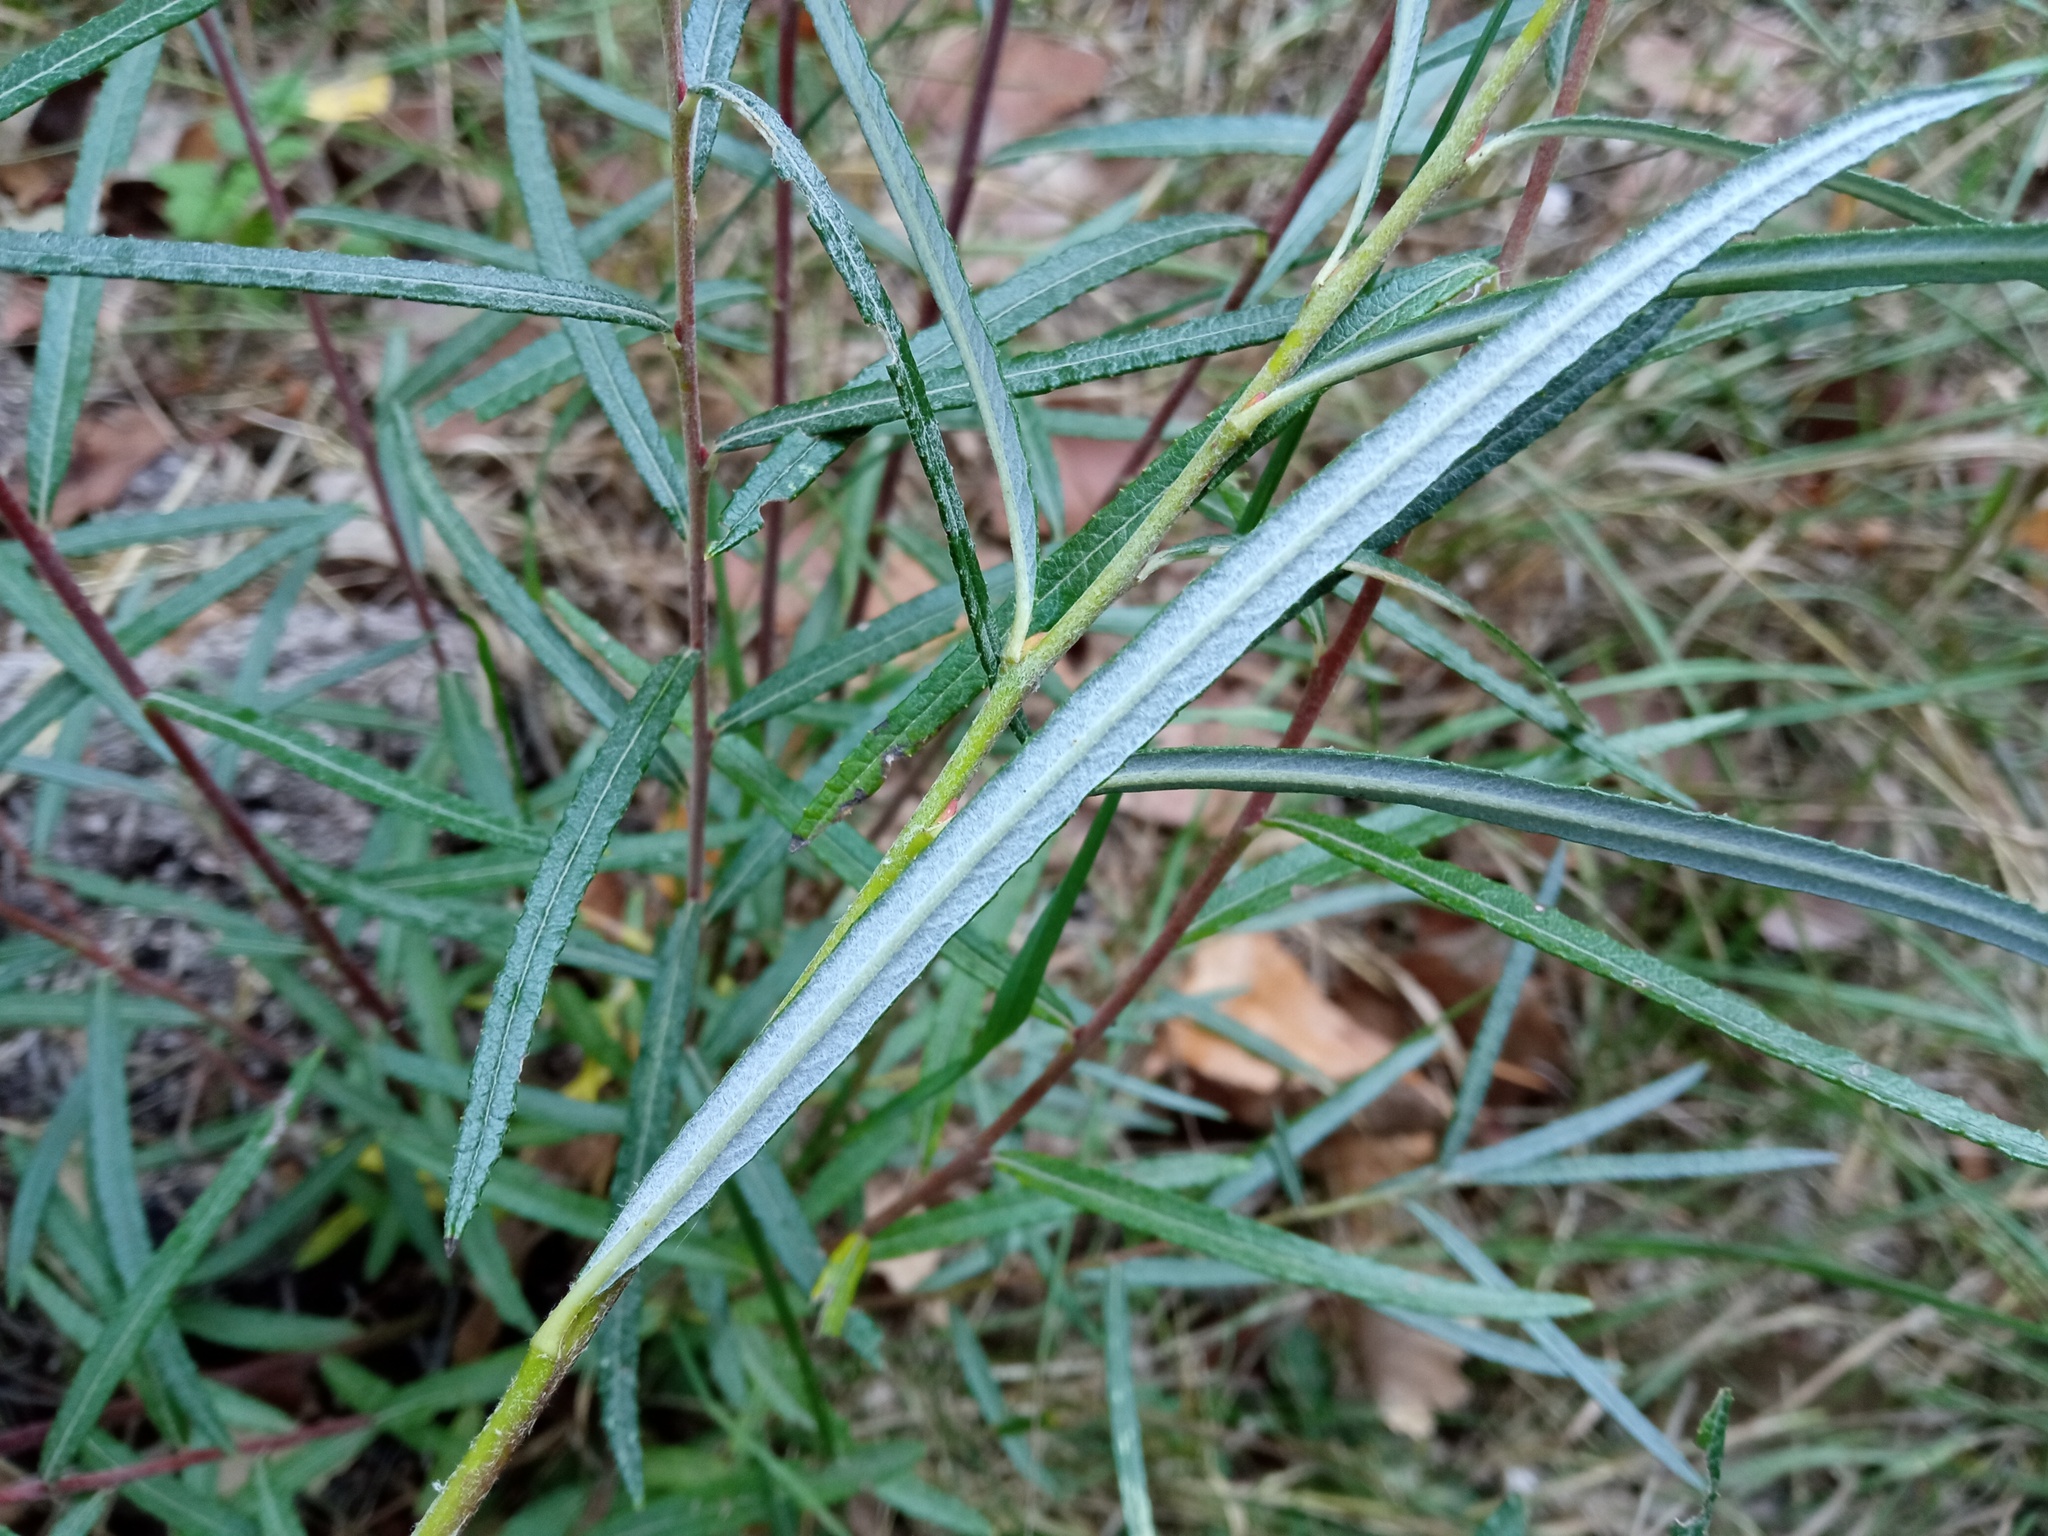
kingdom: Plantae
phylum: Tracheophyta
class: Magnoliopsida
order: Malpighiales
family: Salicaceae
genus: Salix
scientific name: Salix eleagnos
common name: Elaeagnus willow
